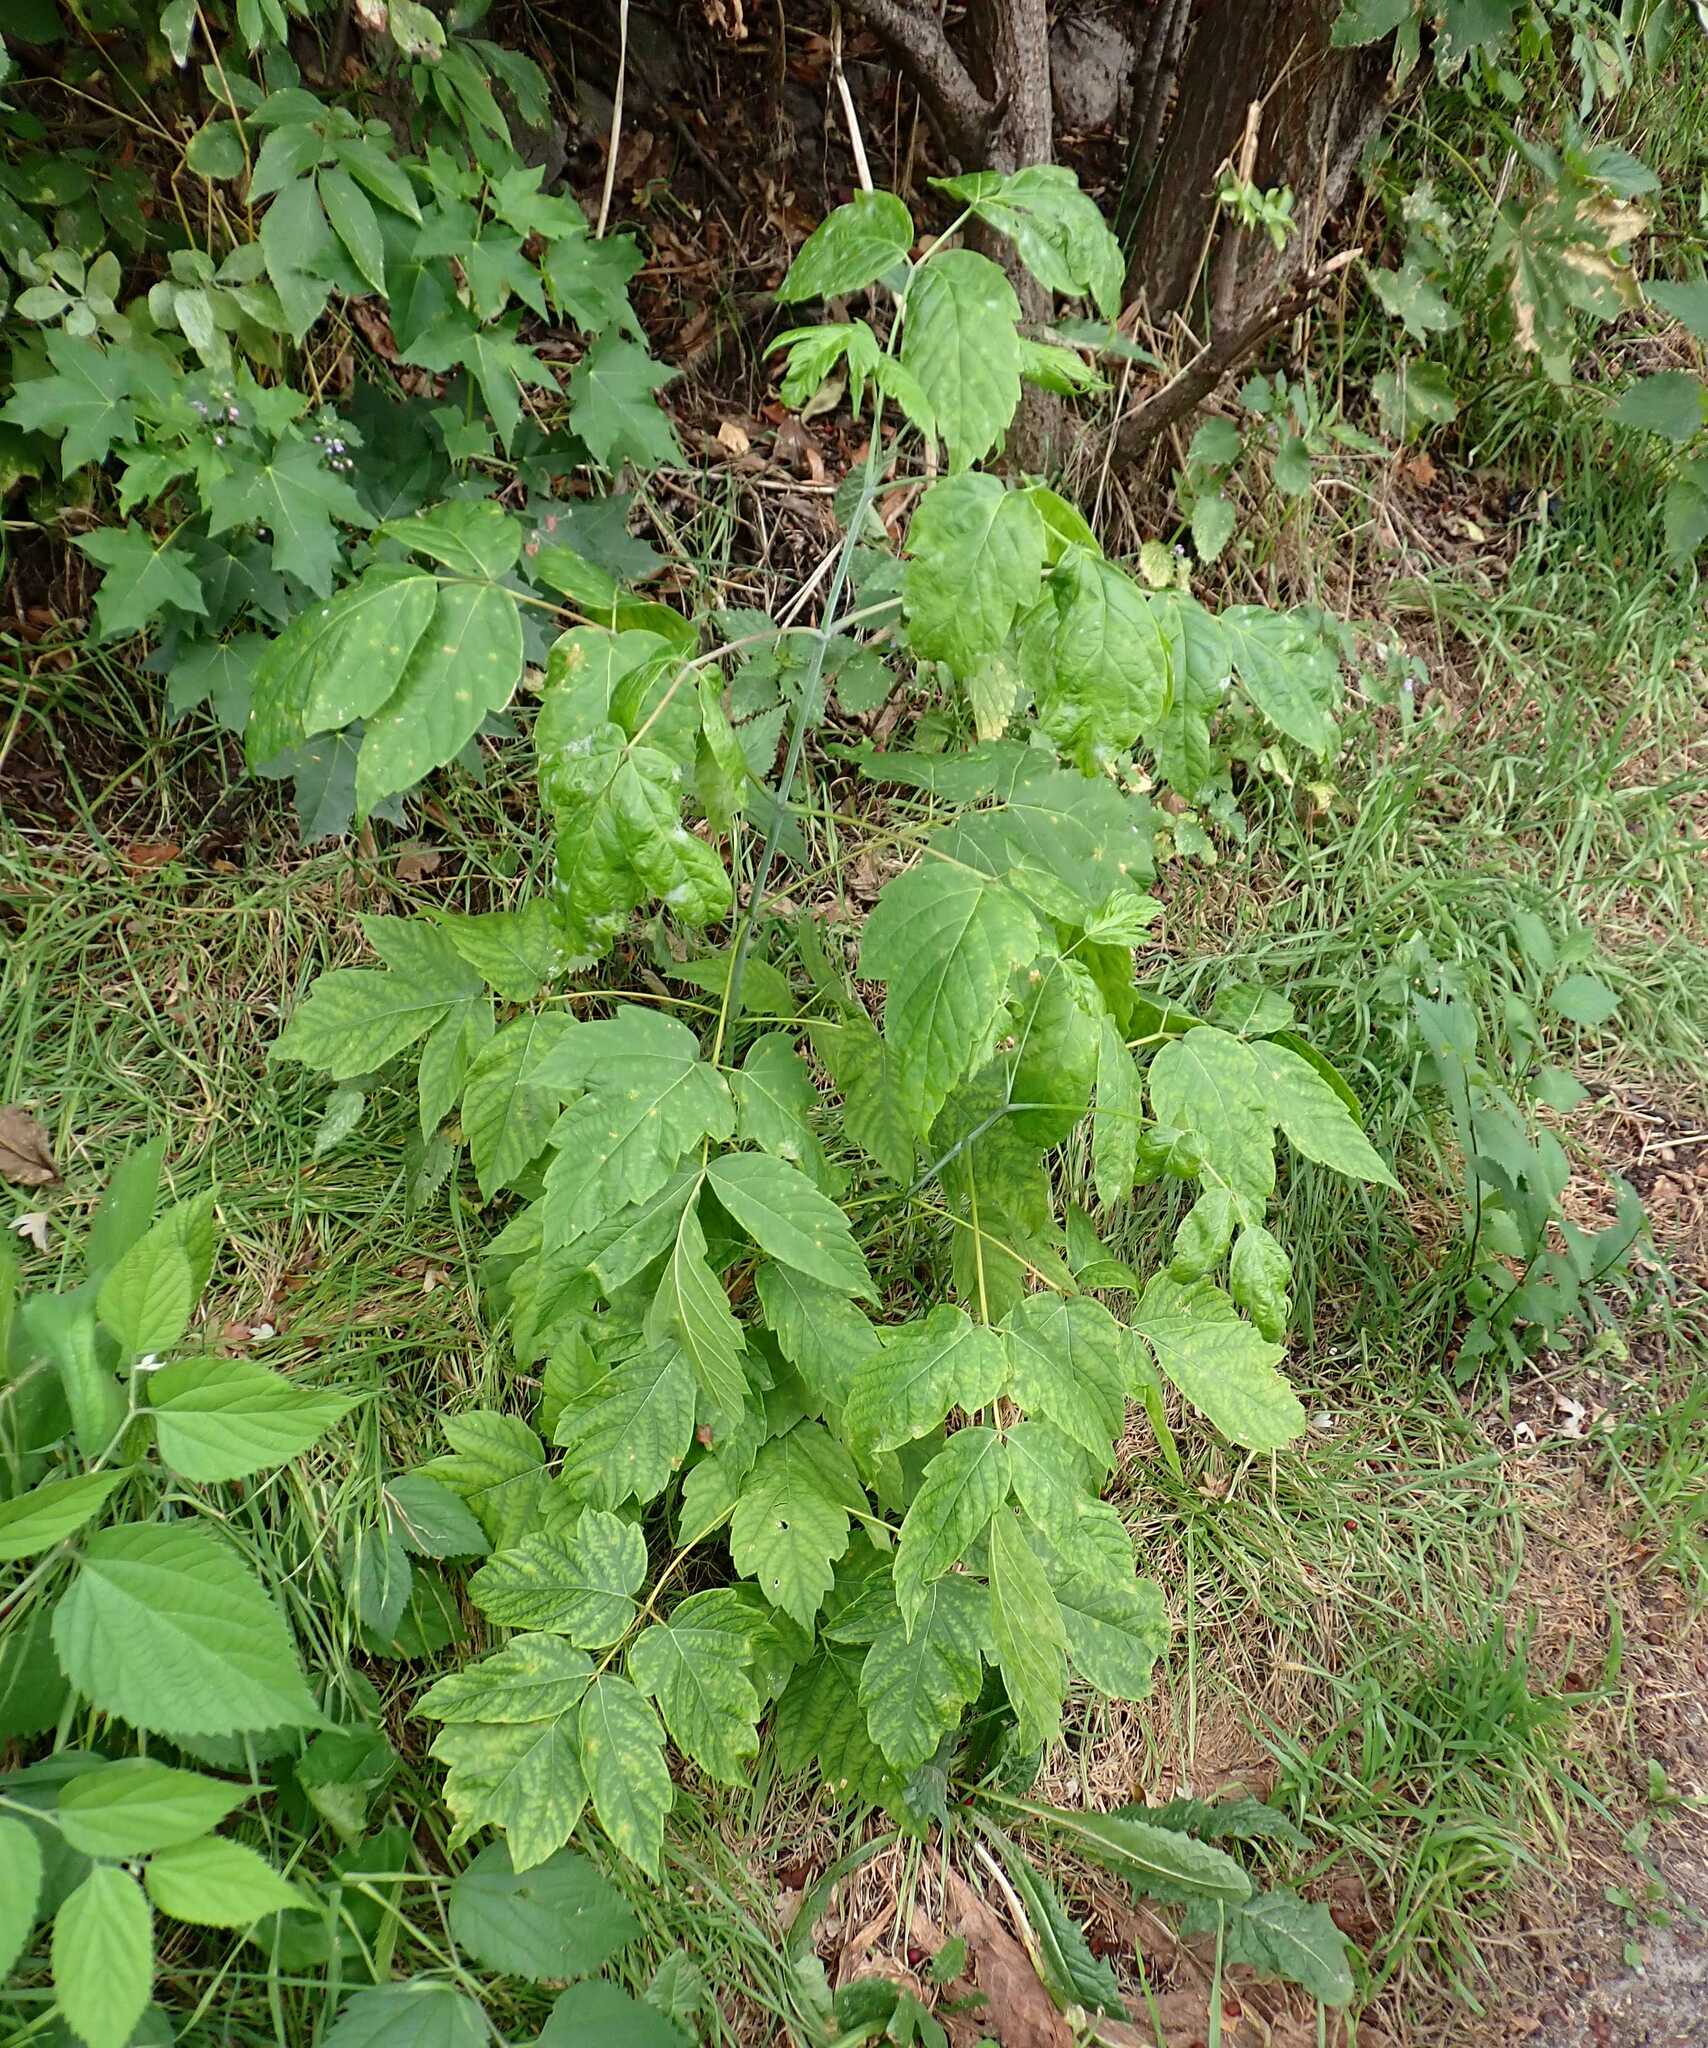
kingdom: Plantae
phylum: Tracheophyta
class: Magnoliopsida
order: Sapindales
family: Sapindaceae
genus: Acer
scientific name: Acer negundo
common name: Ashleaf maple
